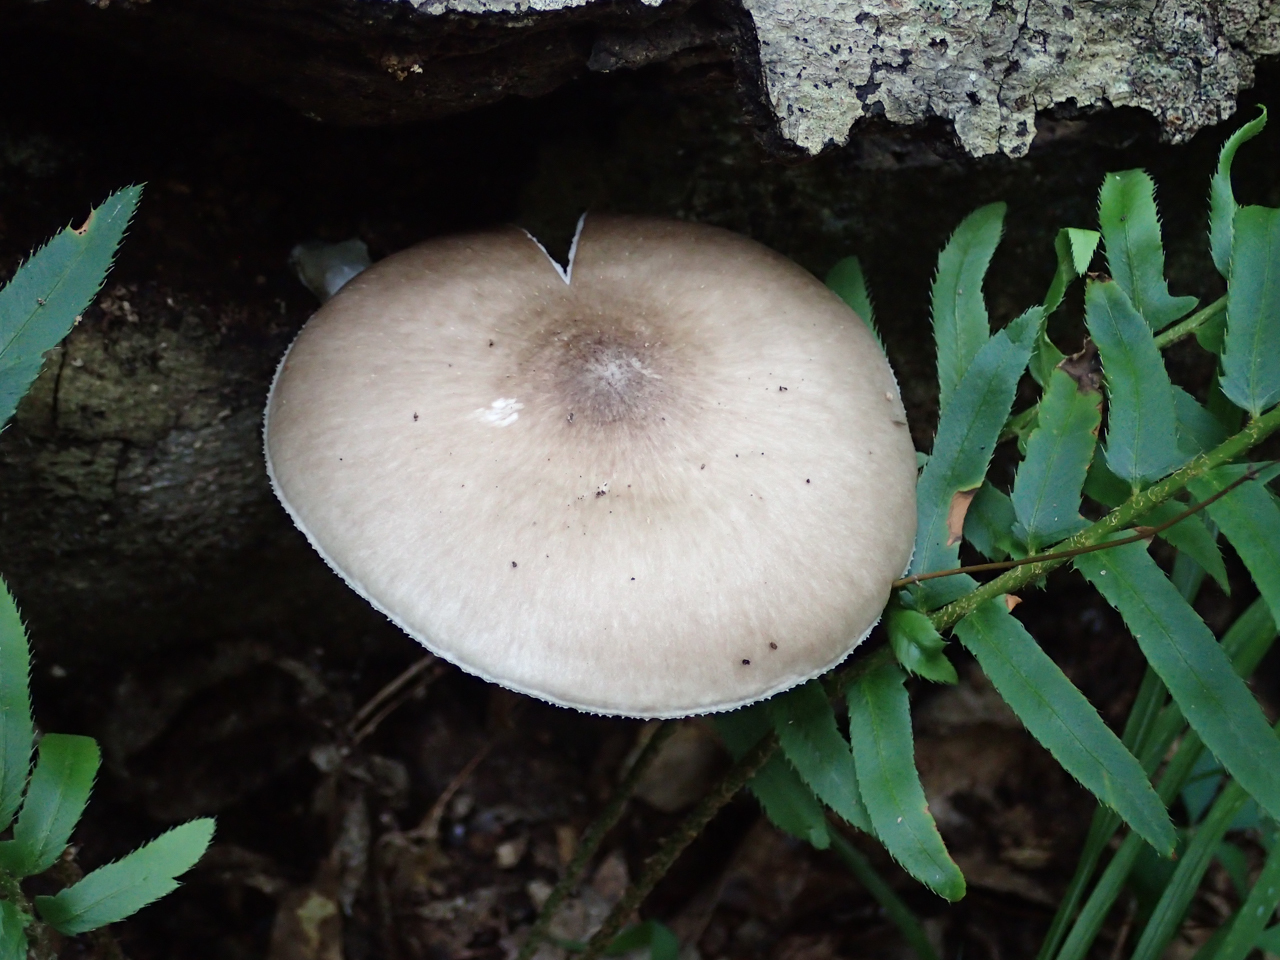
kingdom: Fungi
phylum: Basidiomycota
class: Agaricomycetes
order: Agaricales
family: Pluteaceae
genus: Pluteus
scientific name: Pluteus cervinus
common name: Deer shield
